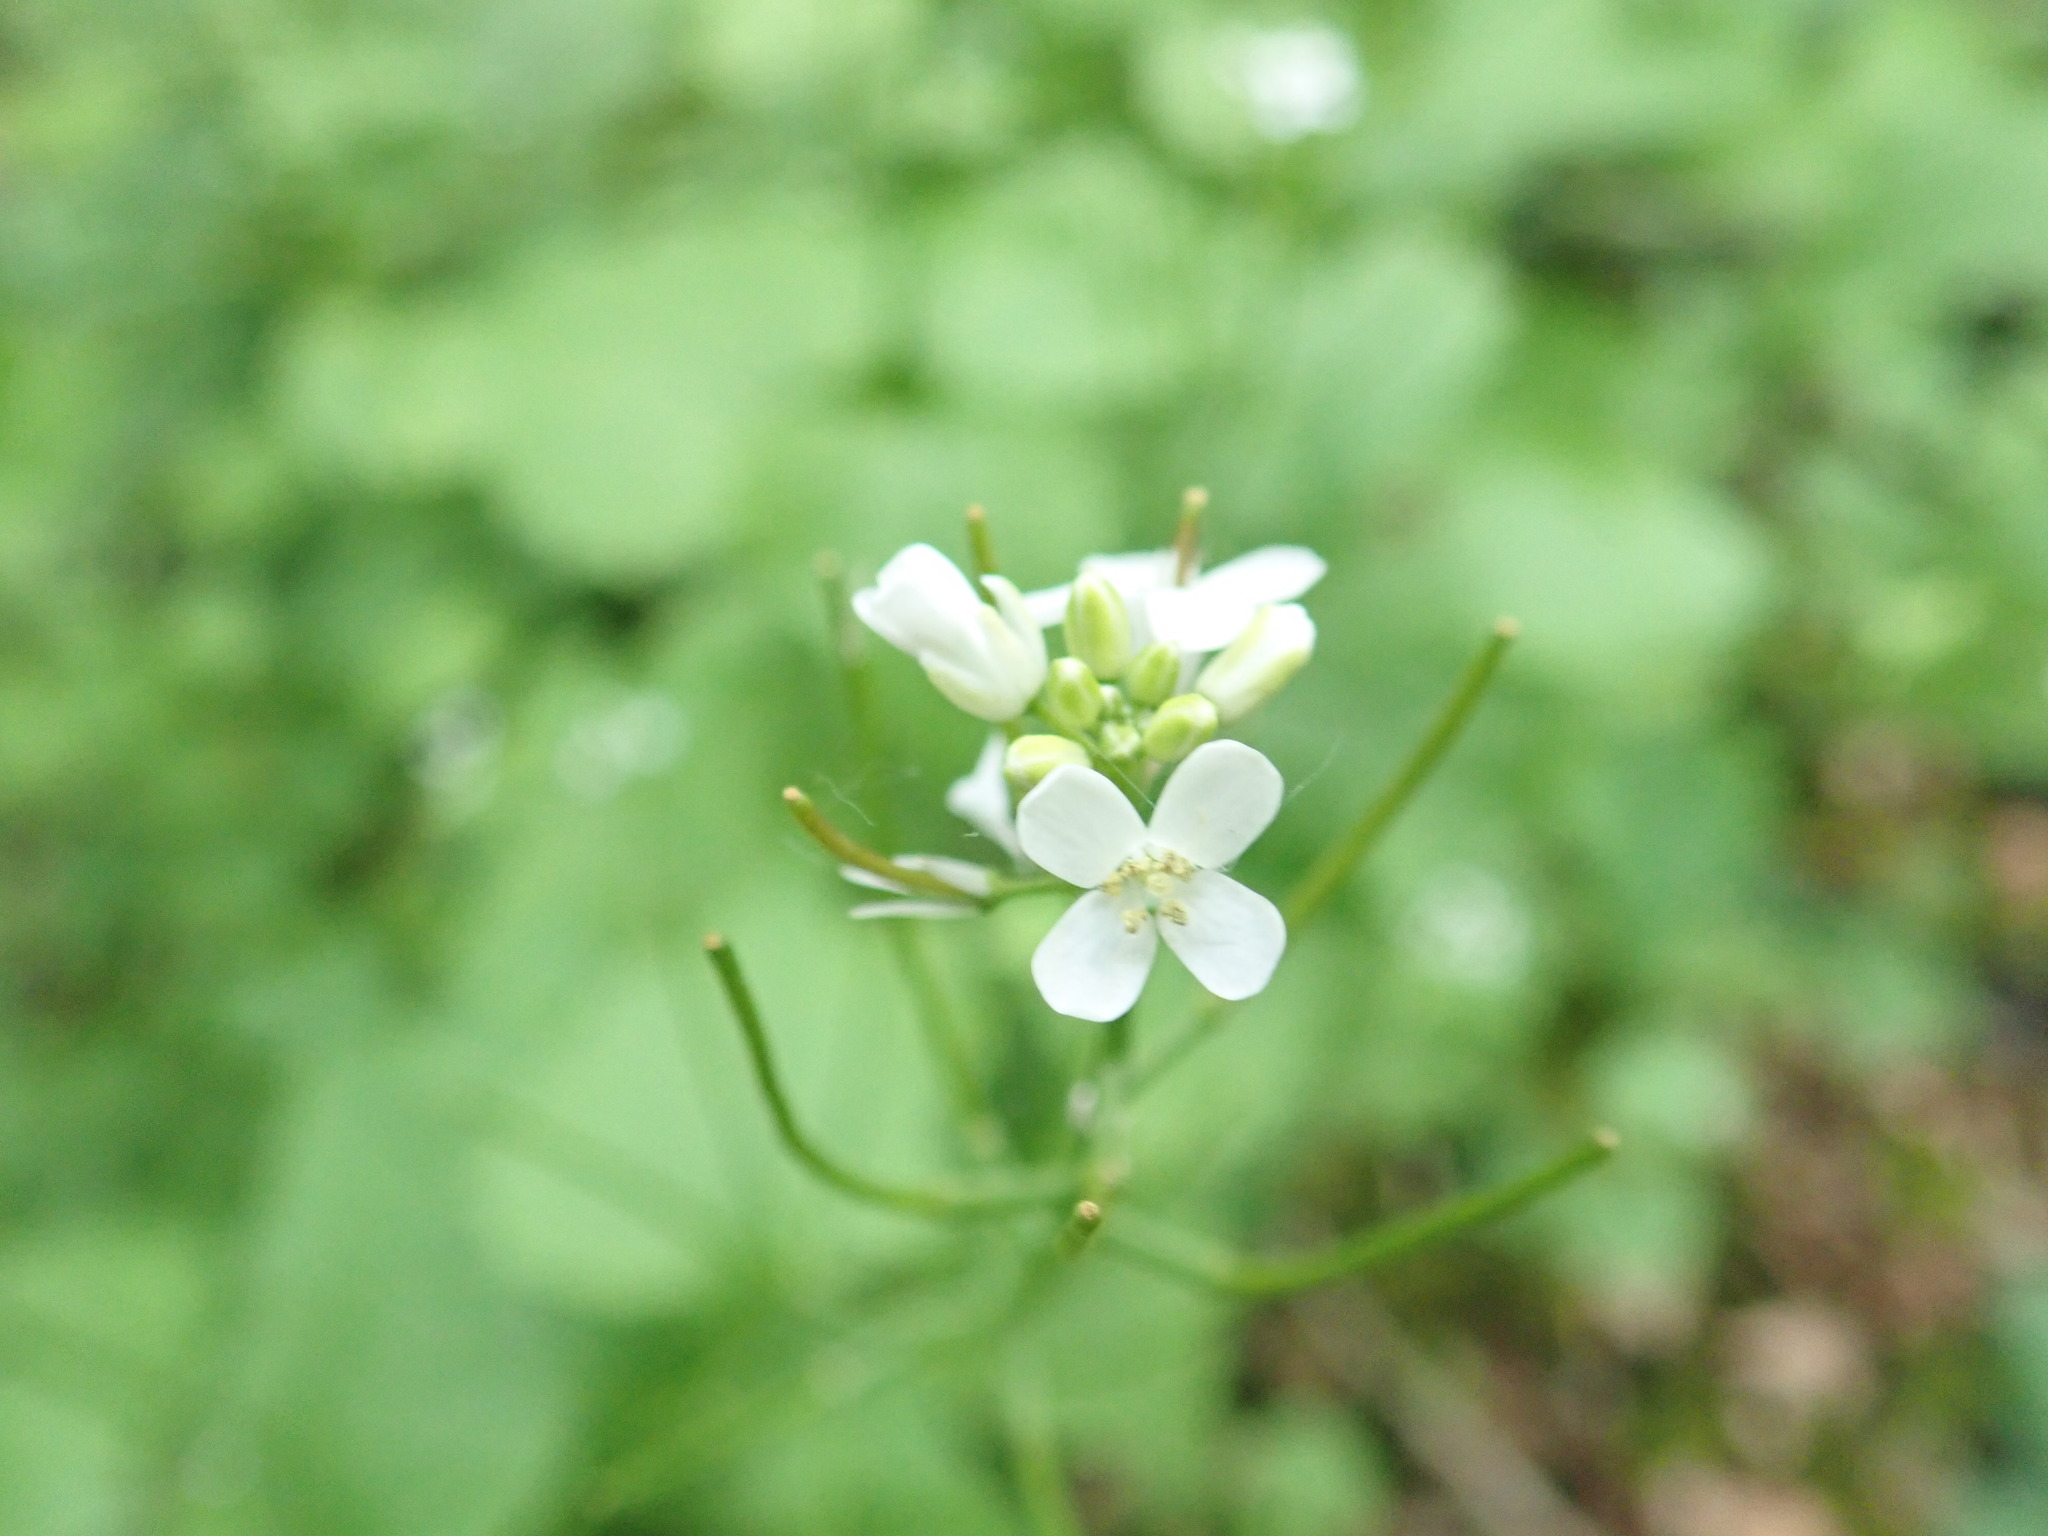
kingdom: Plantae
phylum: Tracheophyta
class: Magnoliopsida
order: Brassicales
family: Brassicaceae
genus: Alliaria
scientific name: Alliaria petiolata
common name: Garlic mustard
